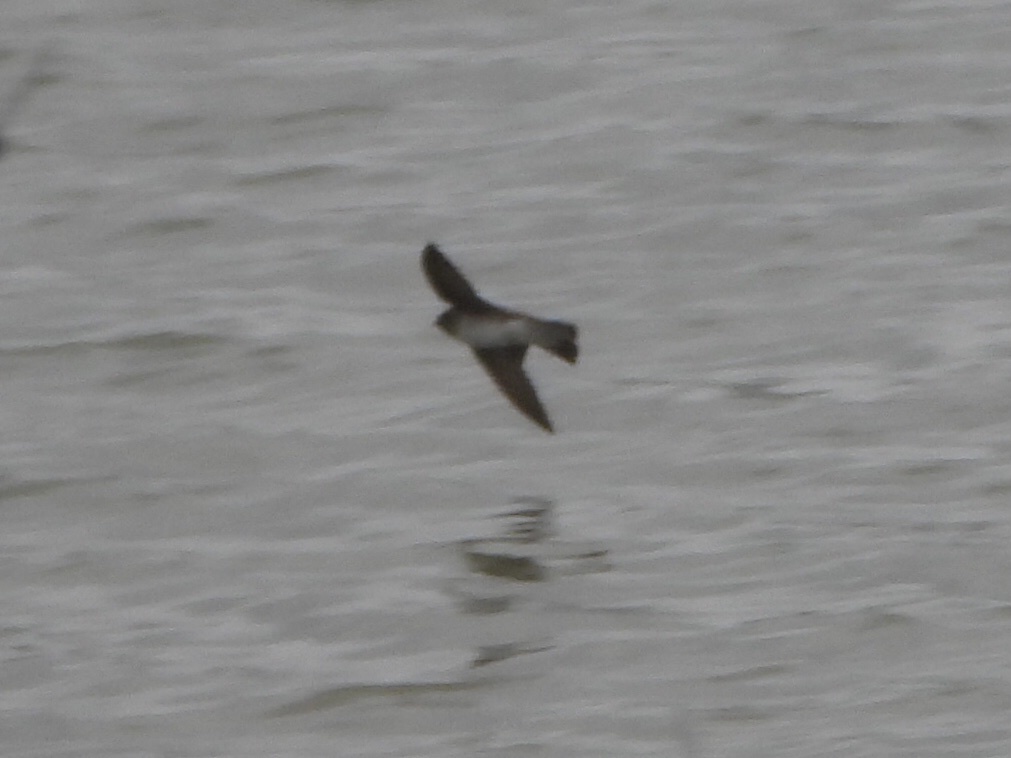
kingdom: Animalia
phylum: Chordata
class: Aves
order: Passeriformes
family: Hirundinidae
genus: Stelgidopteryx
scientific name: Stelgidopteryx serripennis
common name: Northern rough-winged swallow
